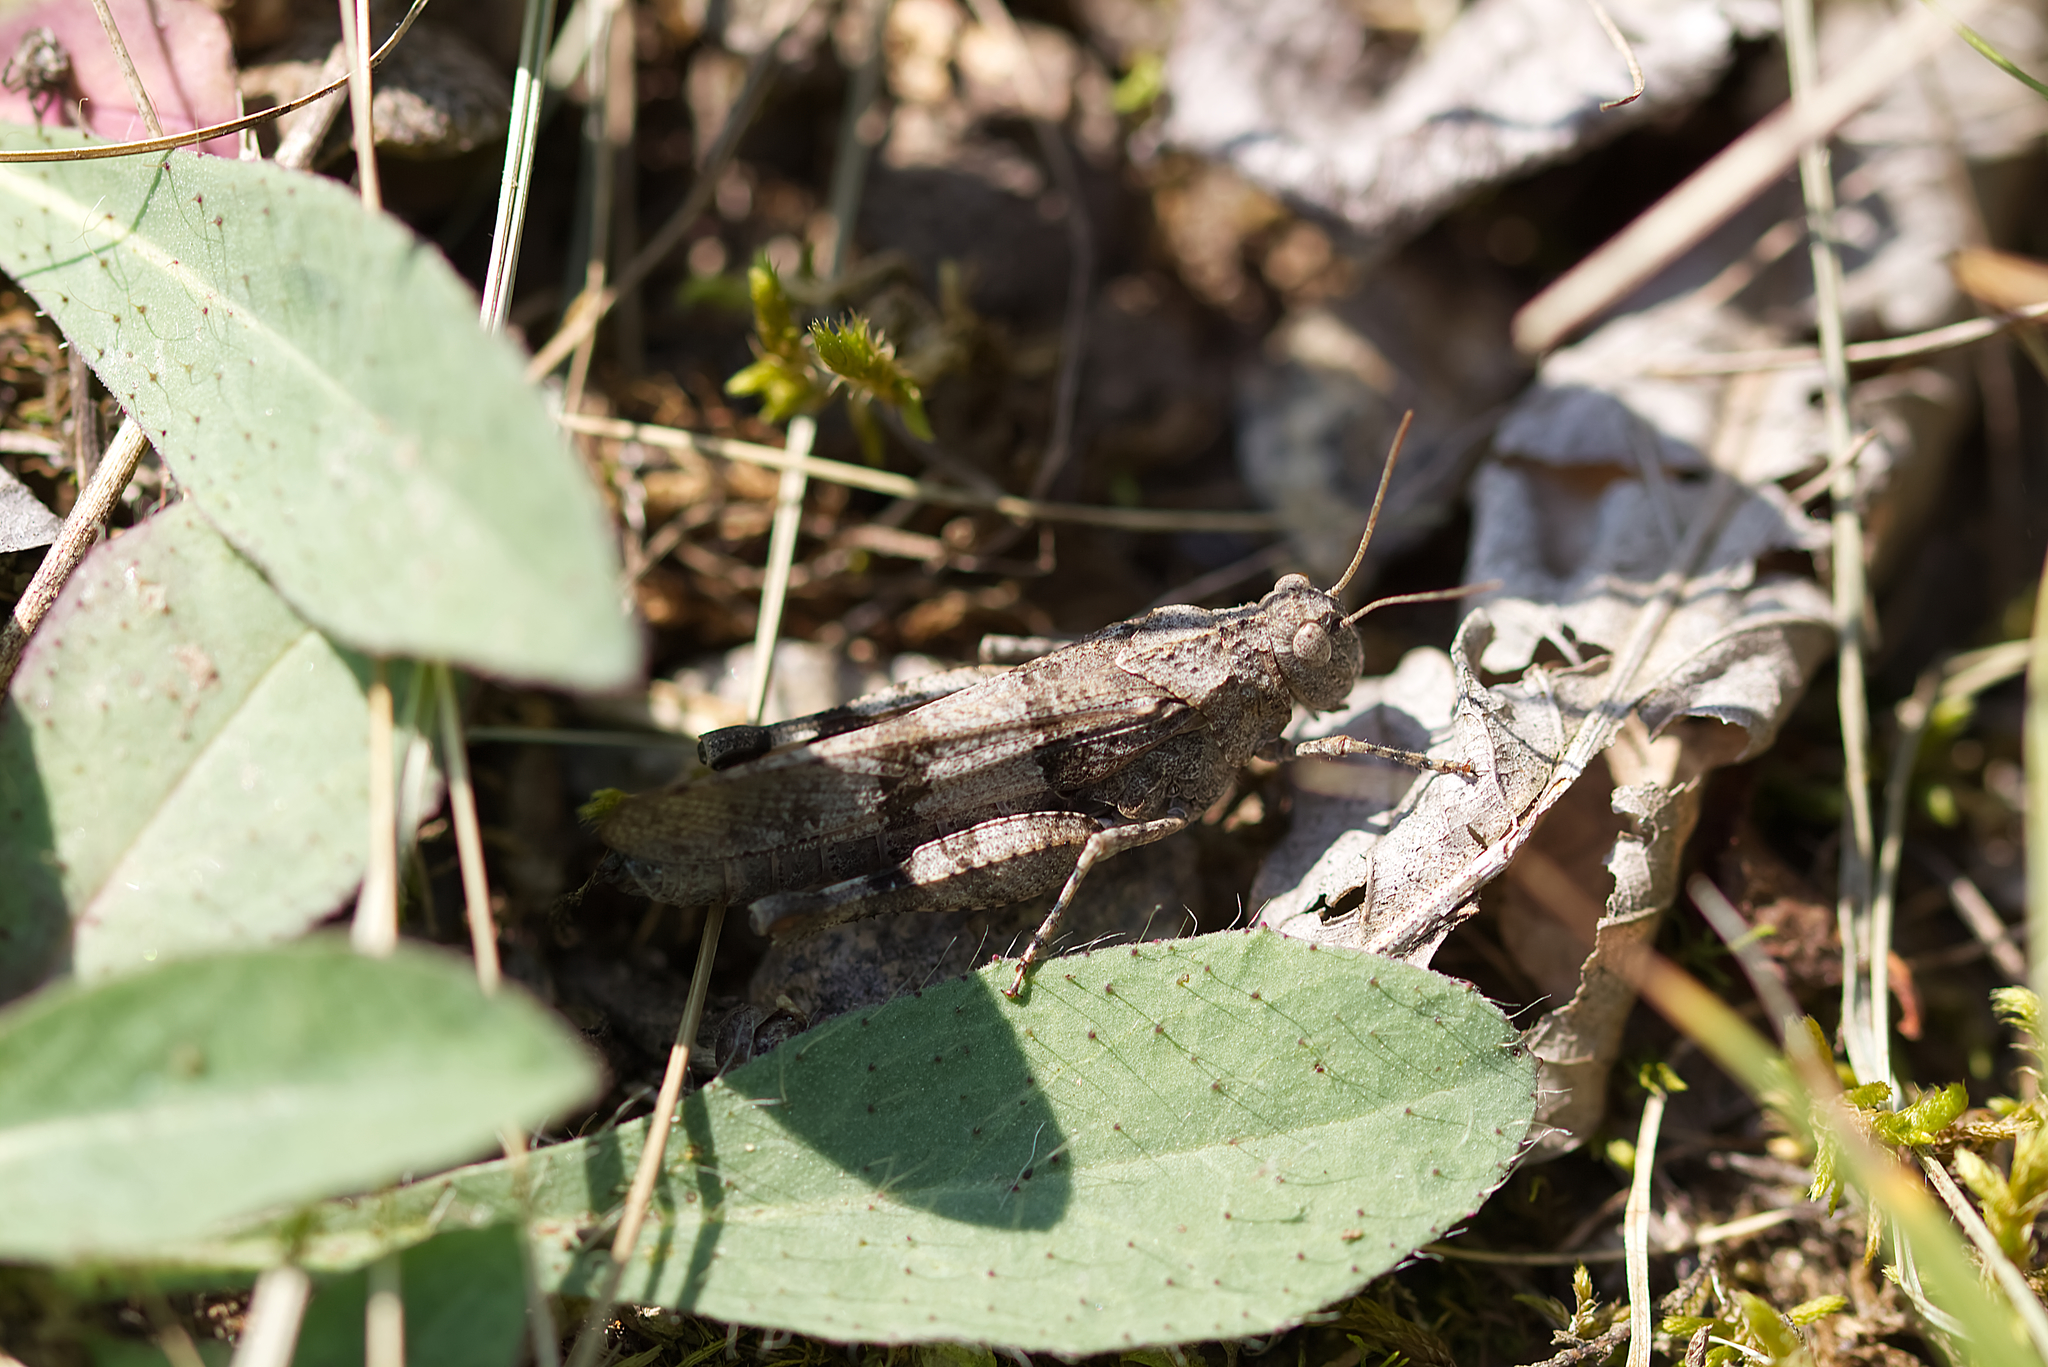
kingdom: Animalia
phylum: Arthropoda
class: Insecta
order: Orthoptera
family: Acrididae
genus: Oedipoda
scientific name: Oedipoda caerulescens
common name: Blue-winged grasshopper
